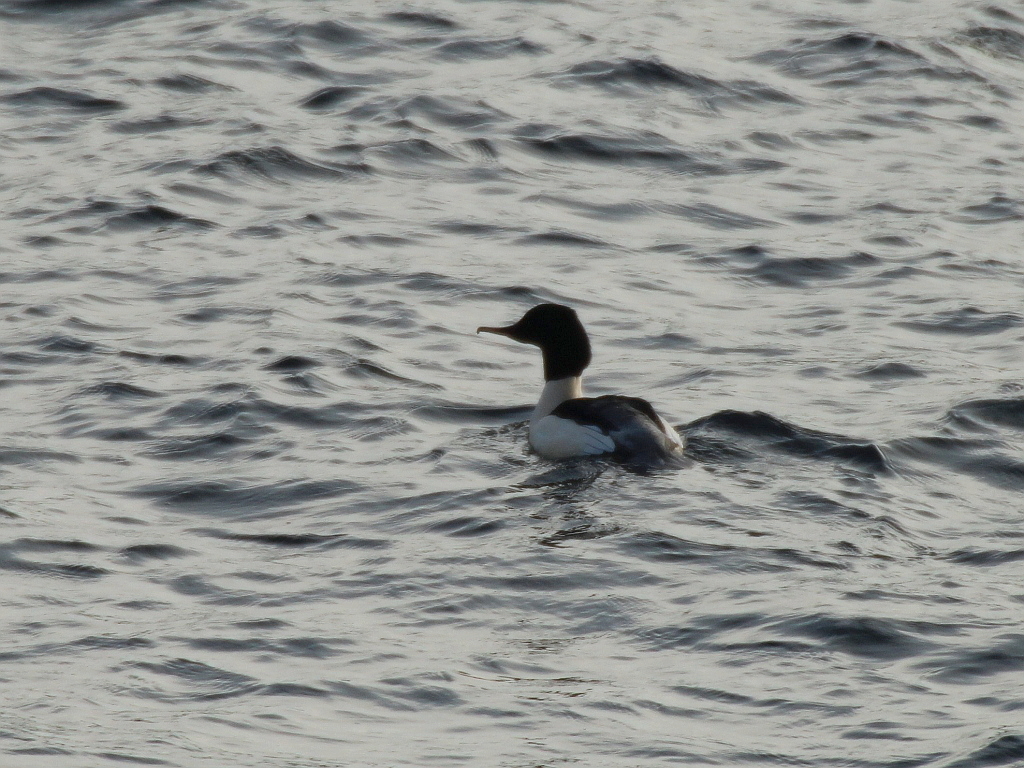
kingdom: Animalia
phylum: Chordata
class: Aves
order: Anseriformes
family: Anatidae
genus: Mergus
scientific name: Mergus merganser
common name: Common merganser
